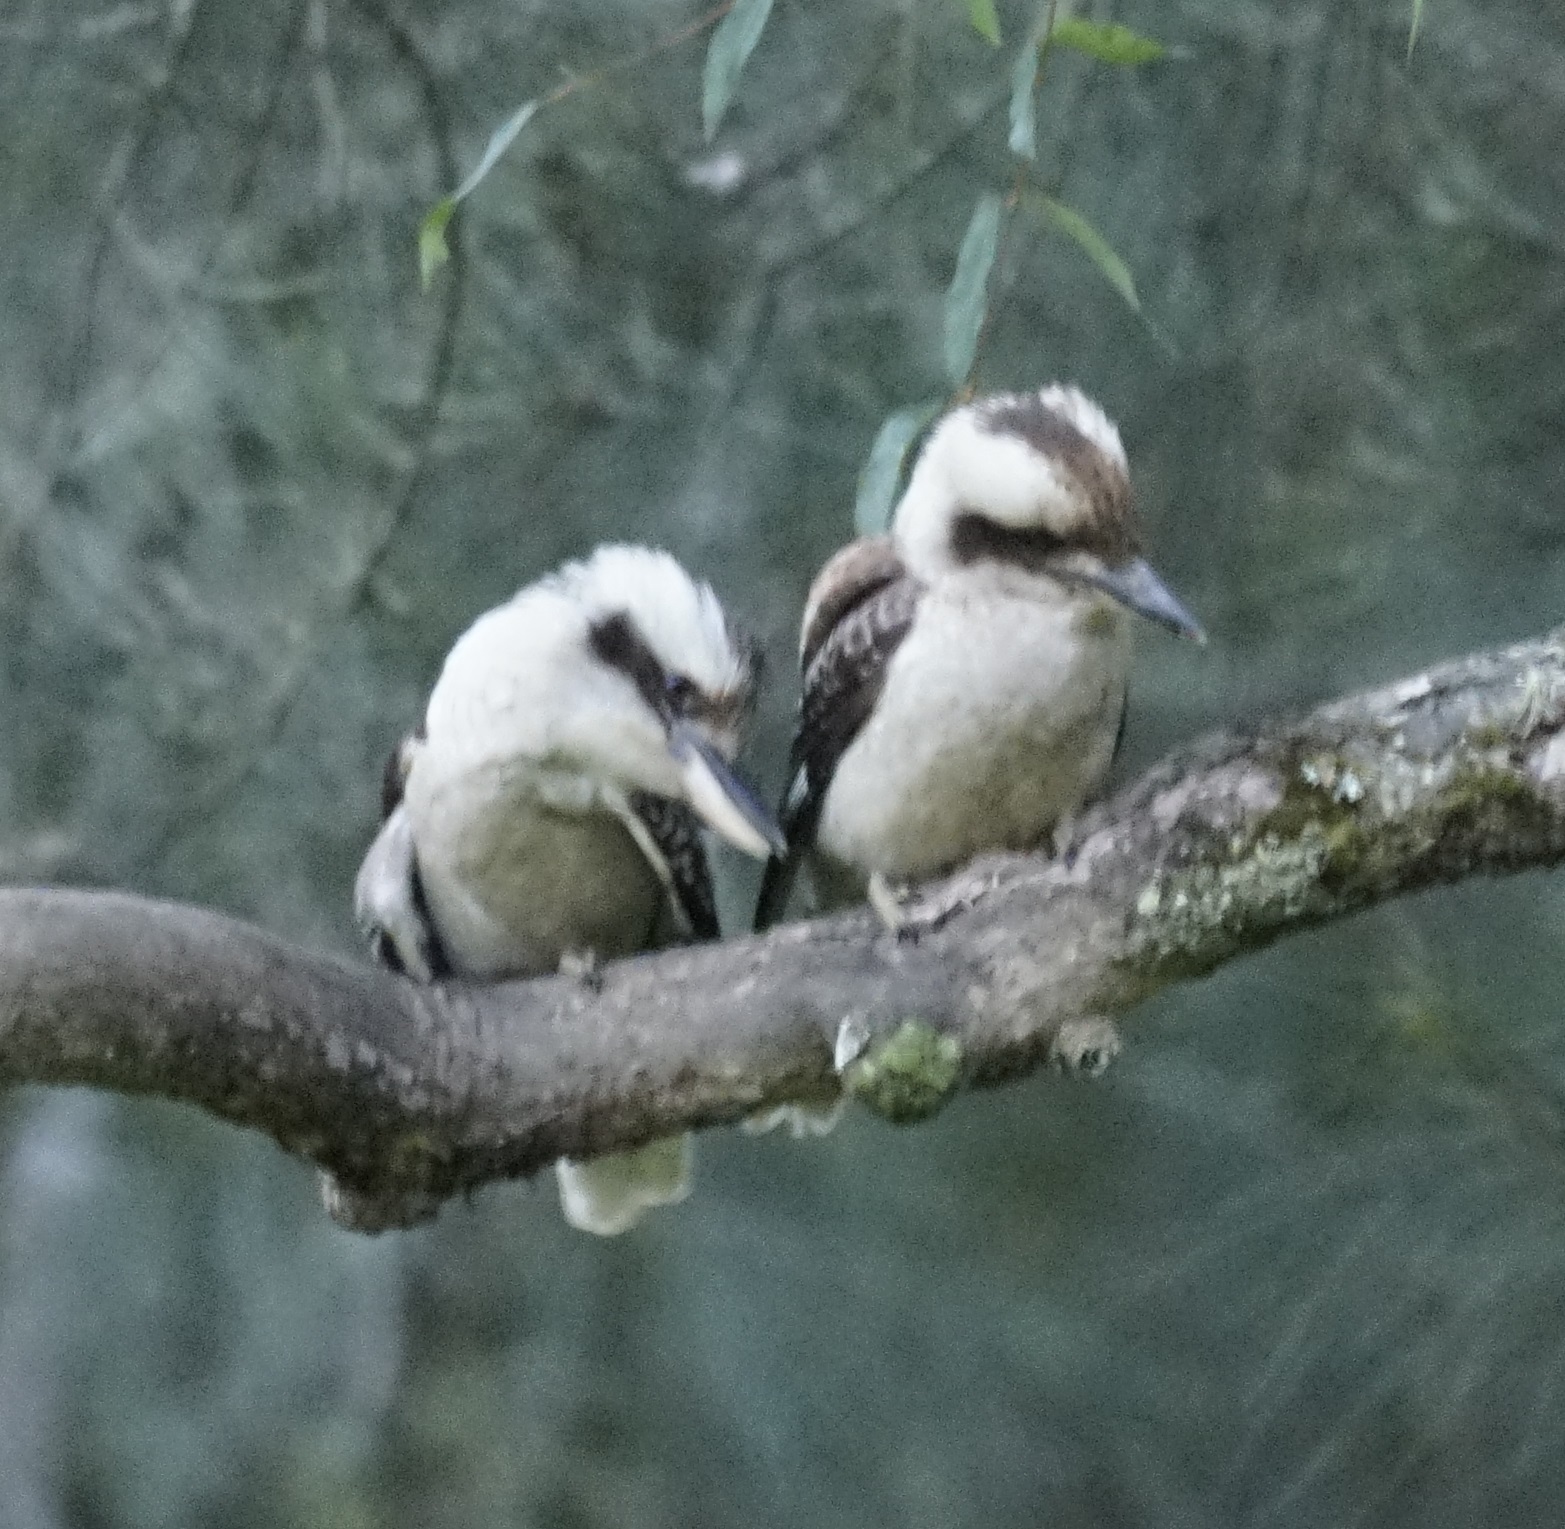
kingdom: Animalia
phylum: Chordata
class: Aves
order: Coraciiformes
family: Alcedinidae
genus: Dacelo
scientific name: Dacelo novaeguineae
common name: Laughing kookaburra
